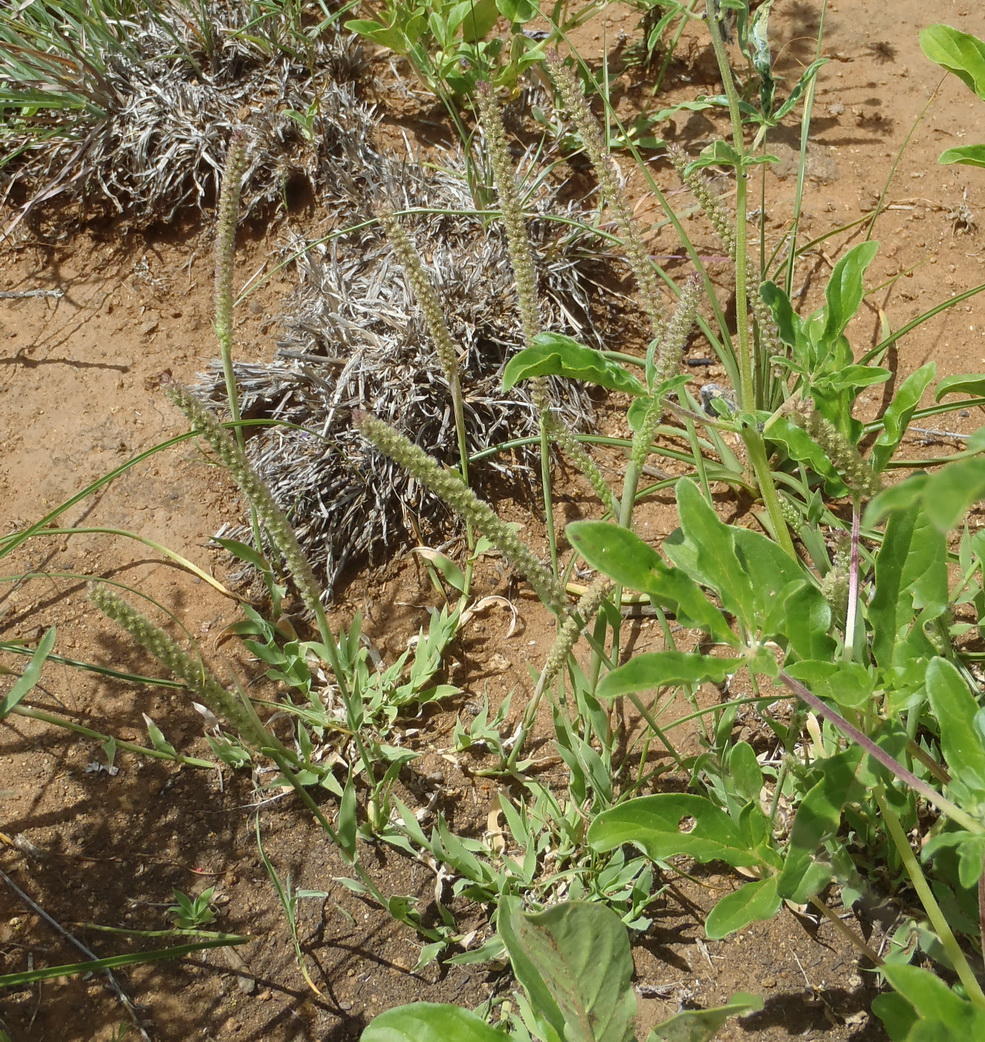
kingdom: Plantae
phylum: Tracheophyta
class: Liliopsida
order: Poales
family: Poaceae
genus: Tragus
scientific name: Tragus berteronianus
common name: African bur-grass
